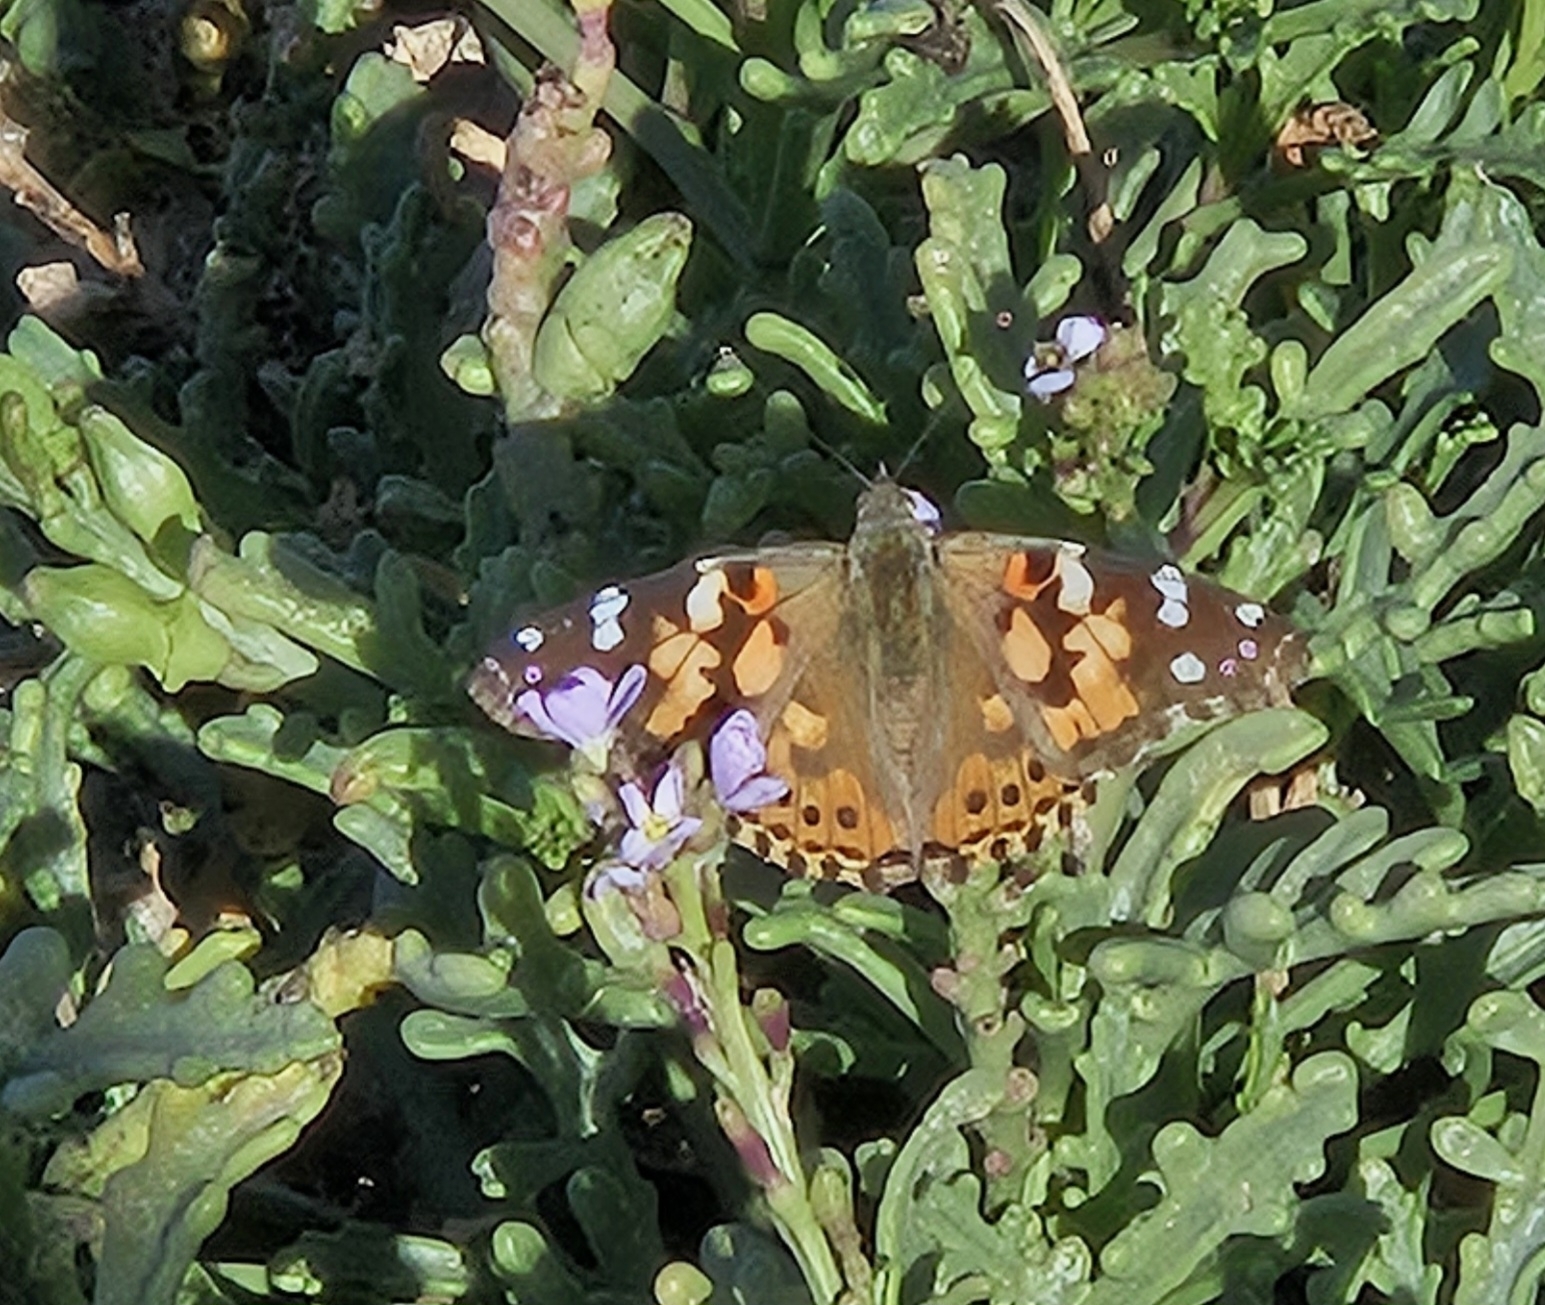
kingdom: Animalia
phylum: Arthropoda
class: Insecta
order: Lepidoptera
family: Nymphalidae
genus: Vanessa
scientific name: Vanessa cardui
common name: Painted lady
